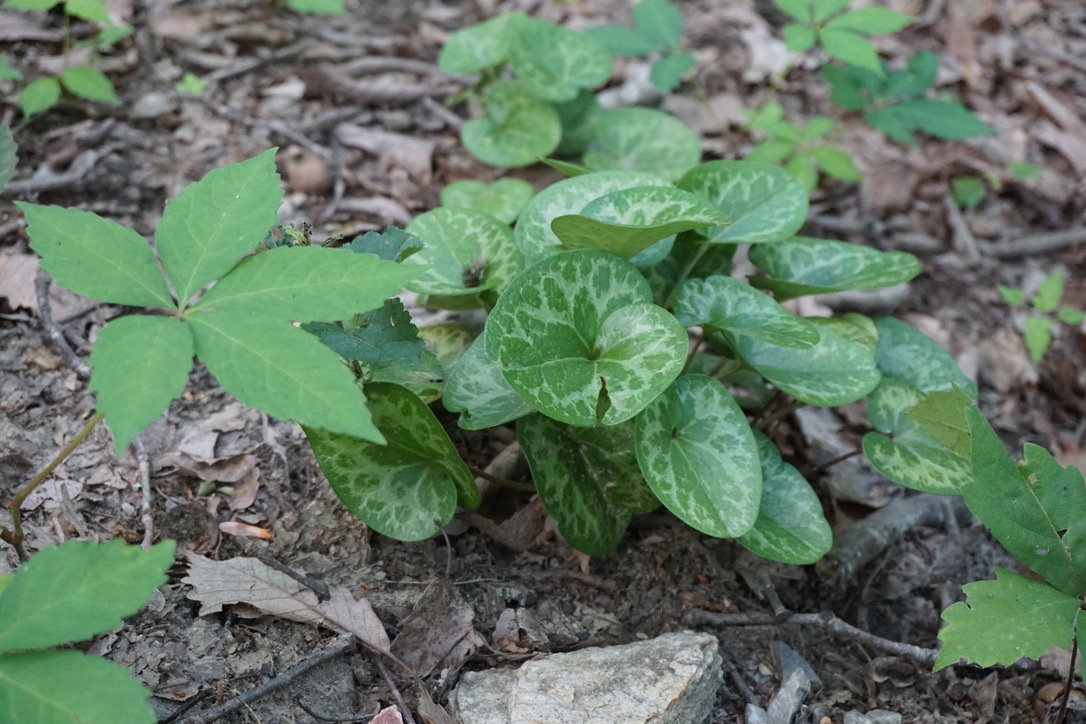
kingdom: Plantae
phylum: Tracheophyta
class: Magnoliopsida
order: Piperales
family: Aristolochiaceae
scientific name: Aristolochiaceae
